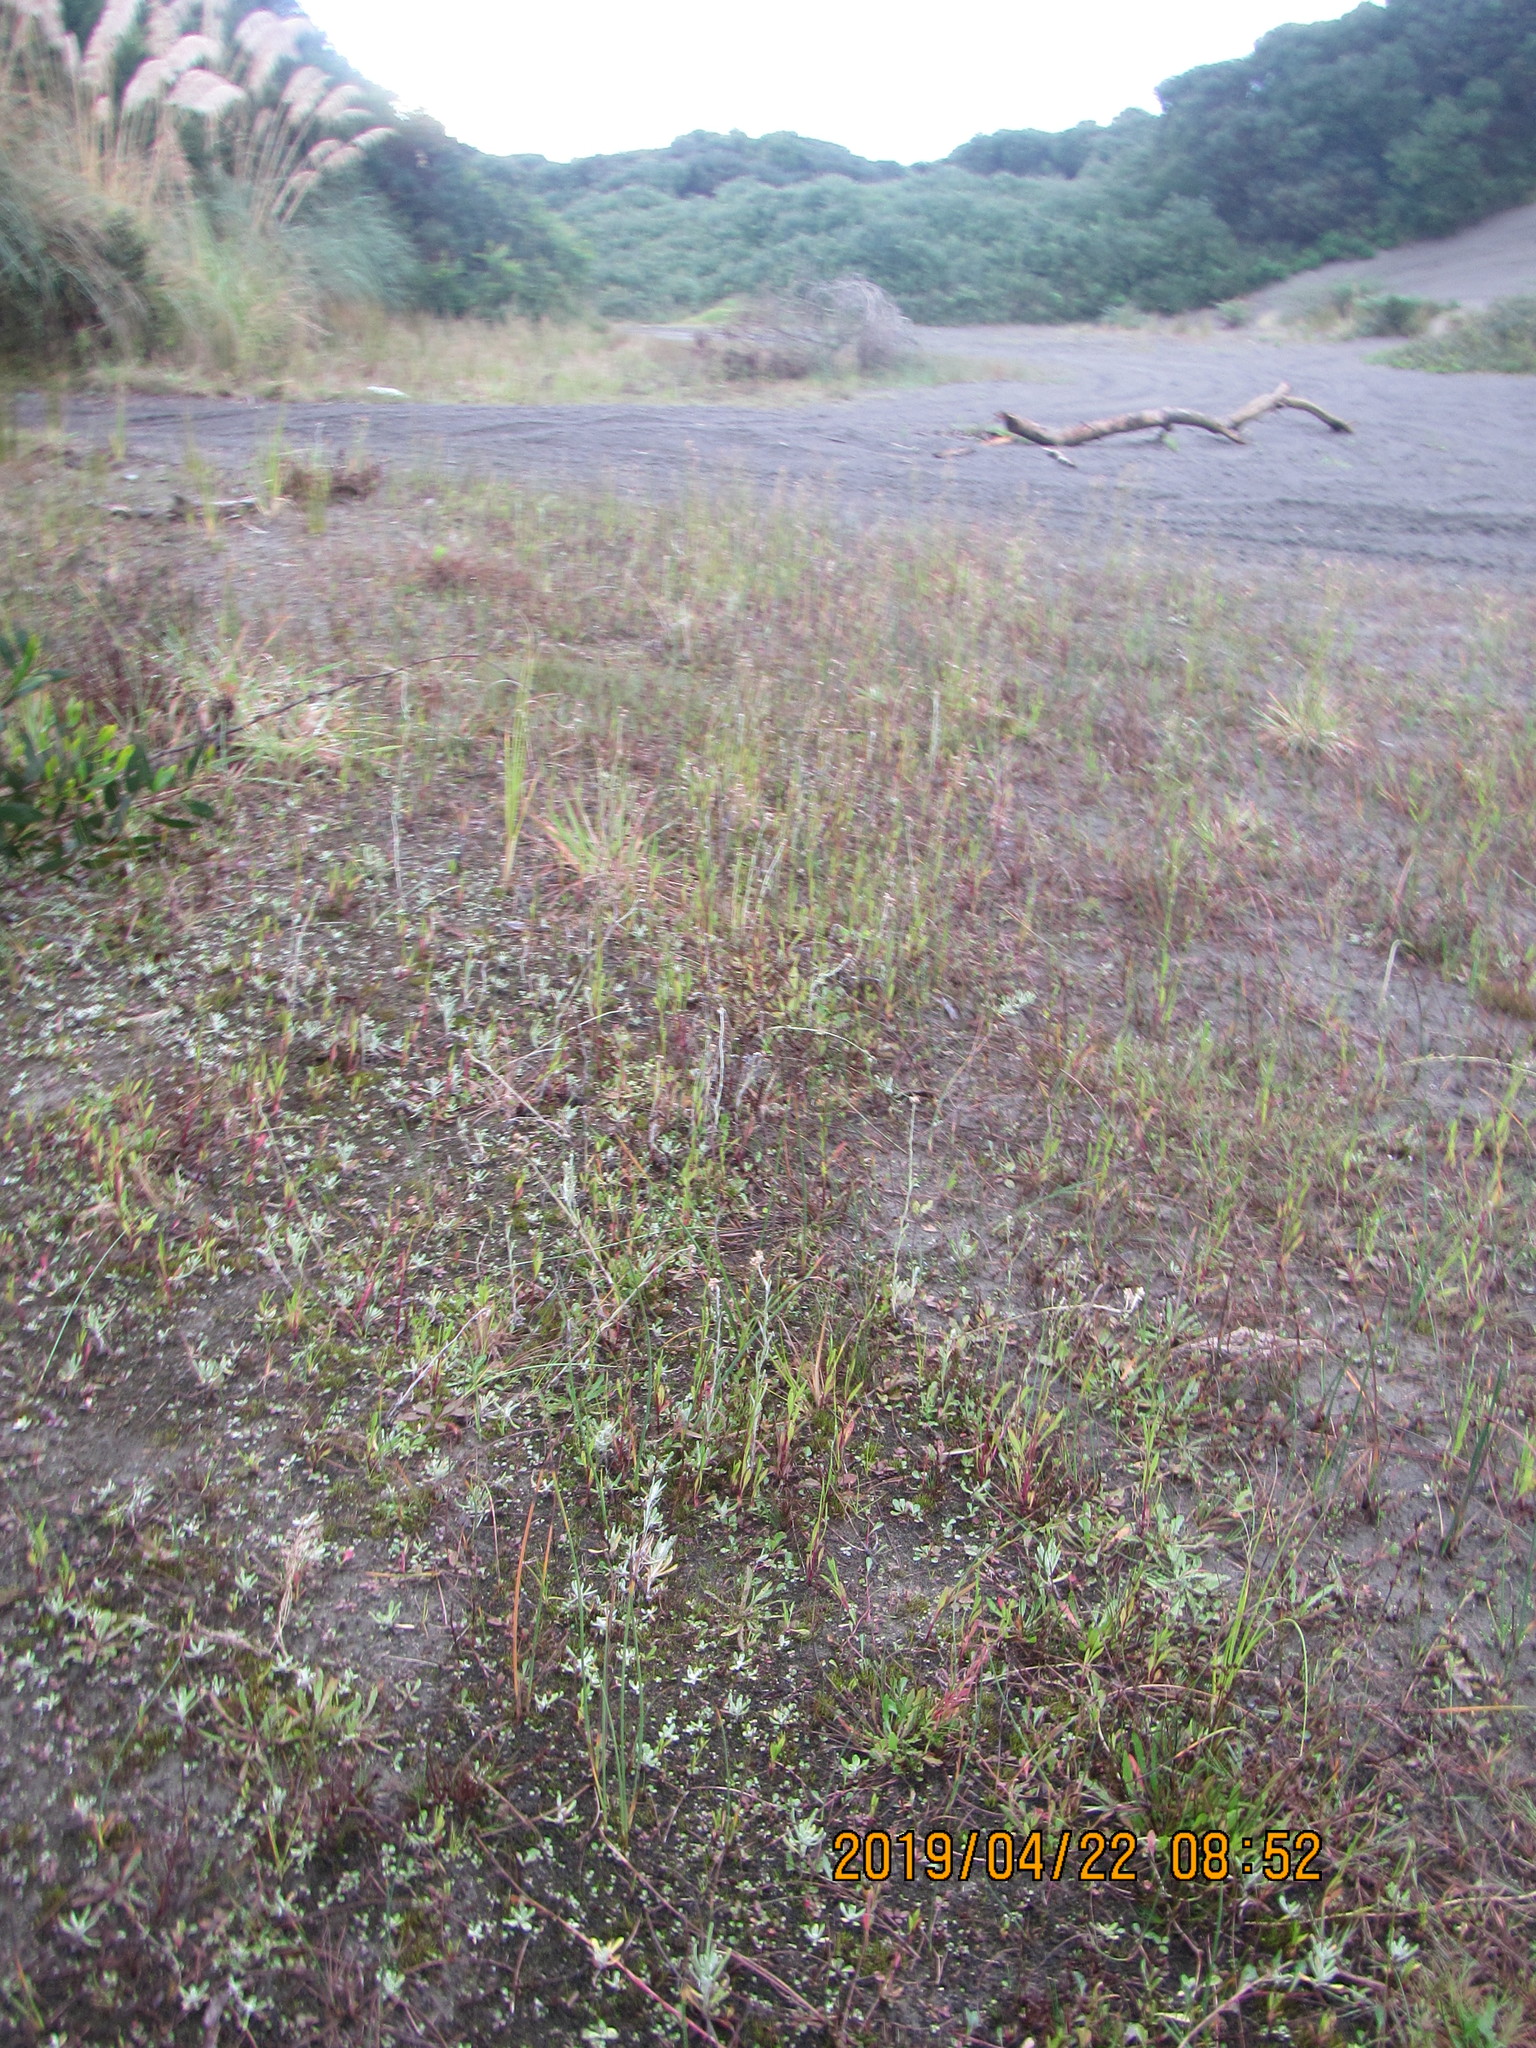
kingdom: Plantae
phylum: Tracheophyta
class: Liliopsida
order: Poales
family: Cyperaceae
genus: Schoenoplectus
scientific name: Schoenoplectus pungens
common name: Sharp club-rush
